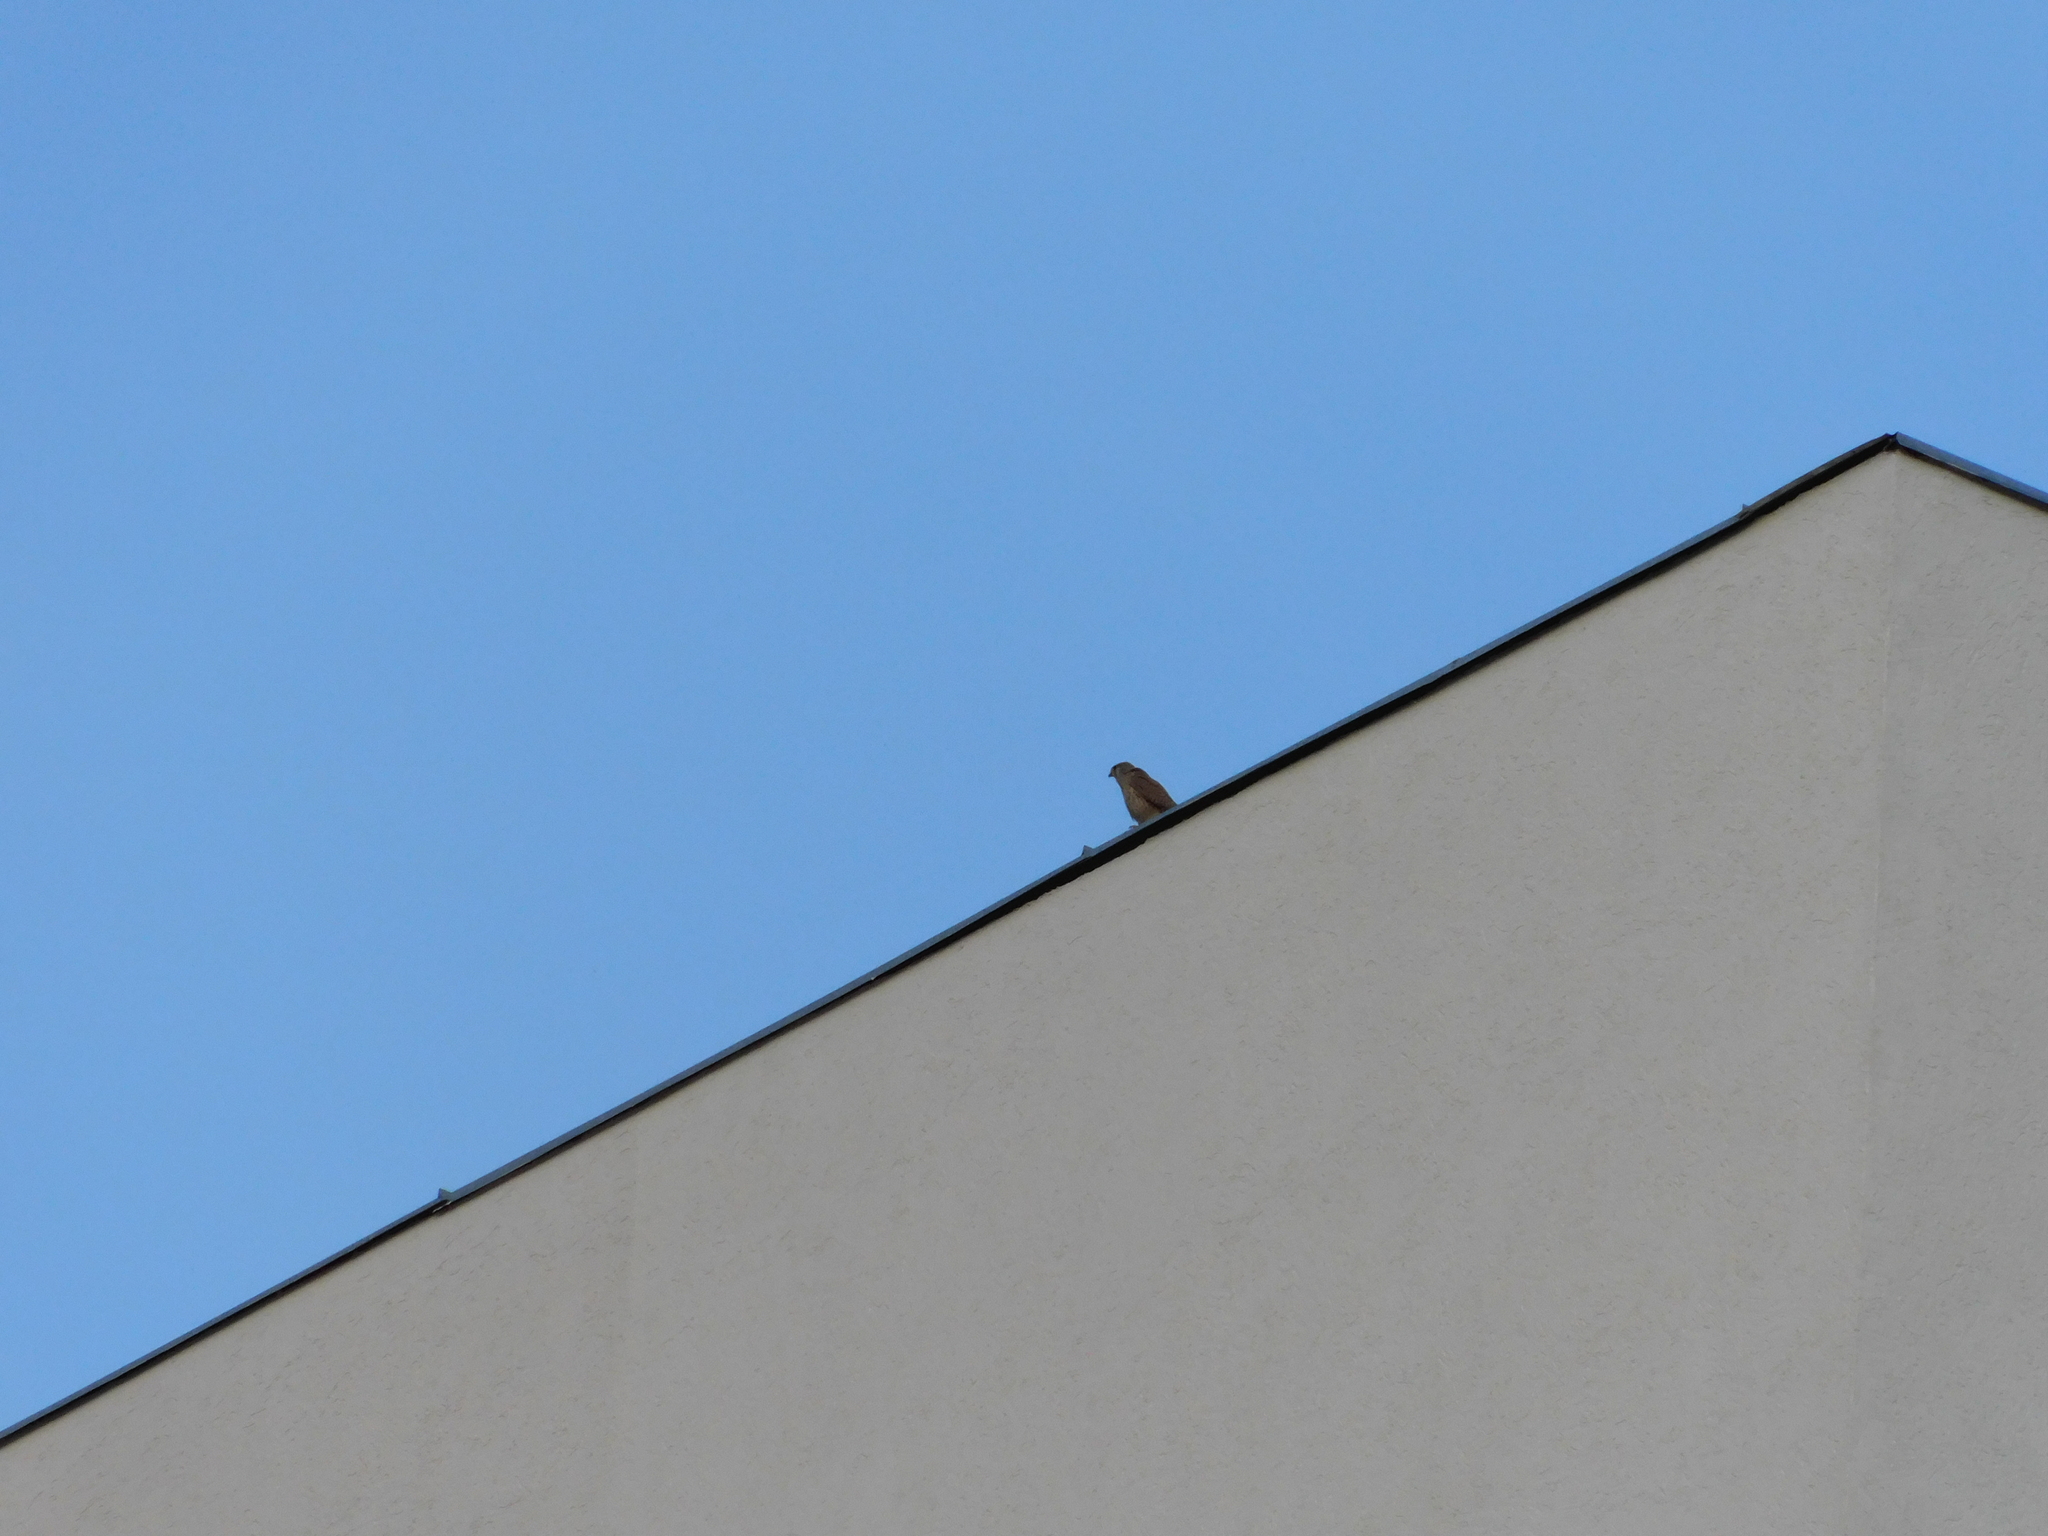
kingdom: Animalia
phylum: Chordata
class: Aves
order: Falconiformes
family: Falconidae
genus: Falco
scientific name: Falco tinnunculus
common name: Common kestrel
